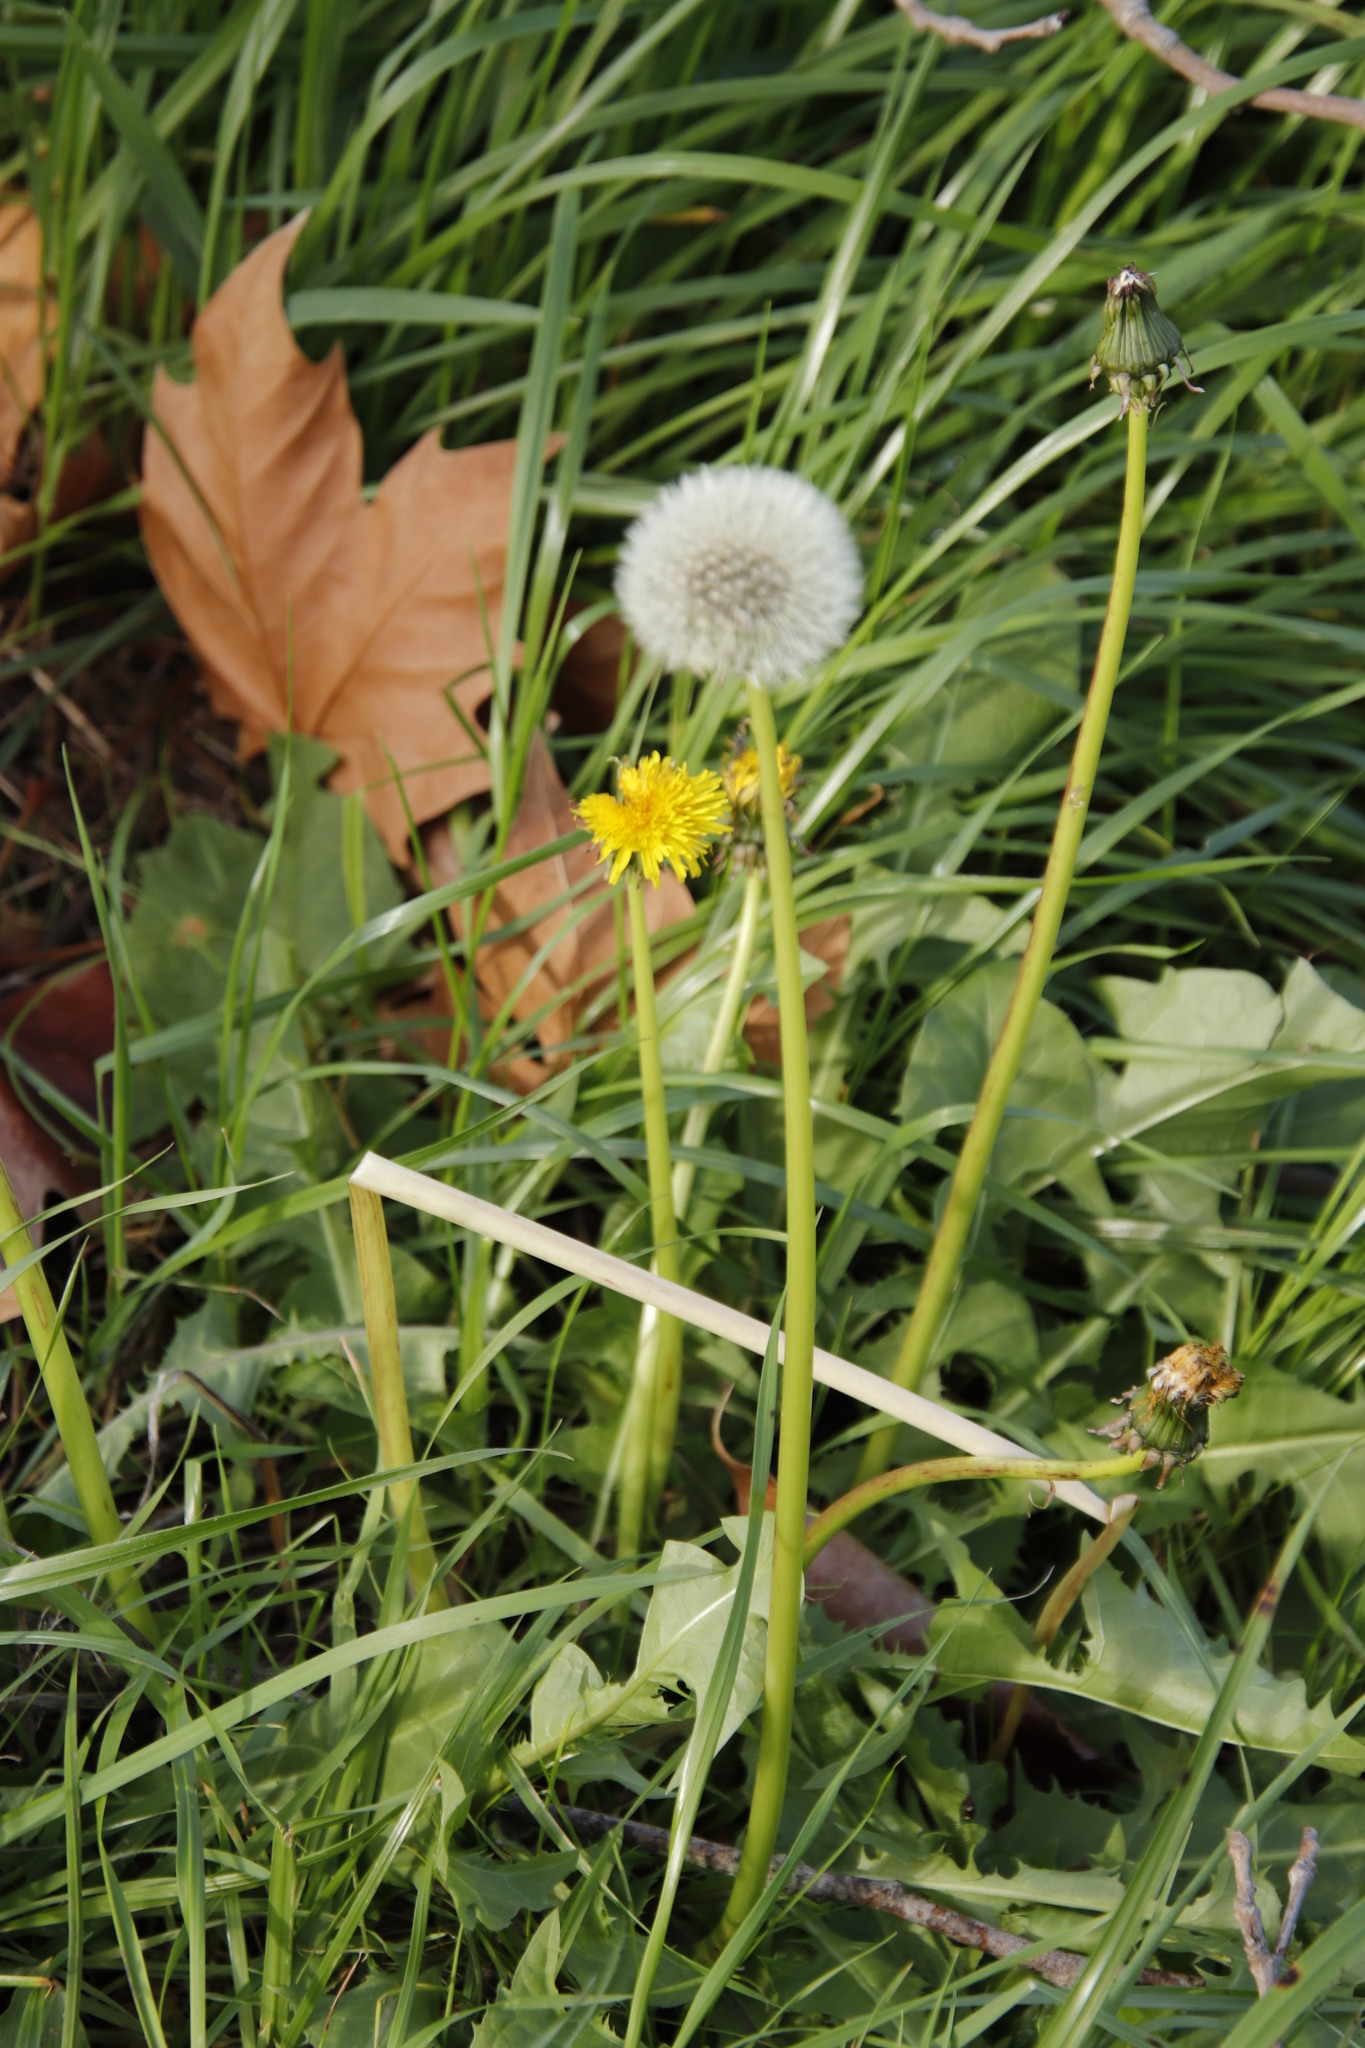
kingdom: Plantae
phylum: Tracheophyta
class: Magnoliopsida
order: Asterales
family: Asteraceae
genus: Taraxacum
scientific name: Taraxacum officinale
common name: Common dandelion
